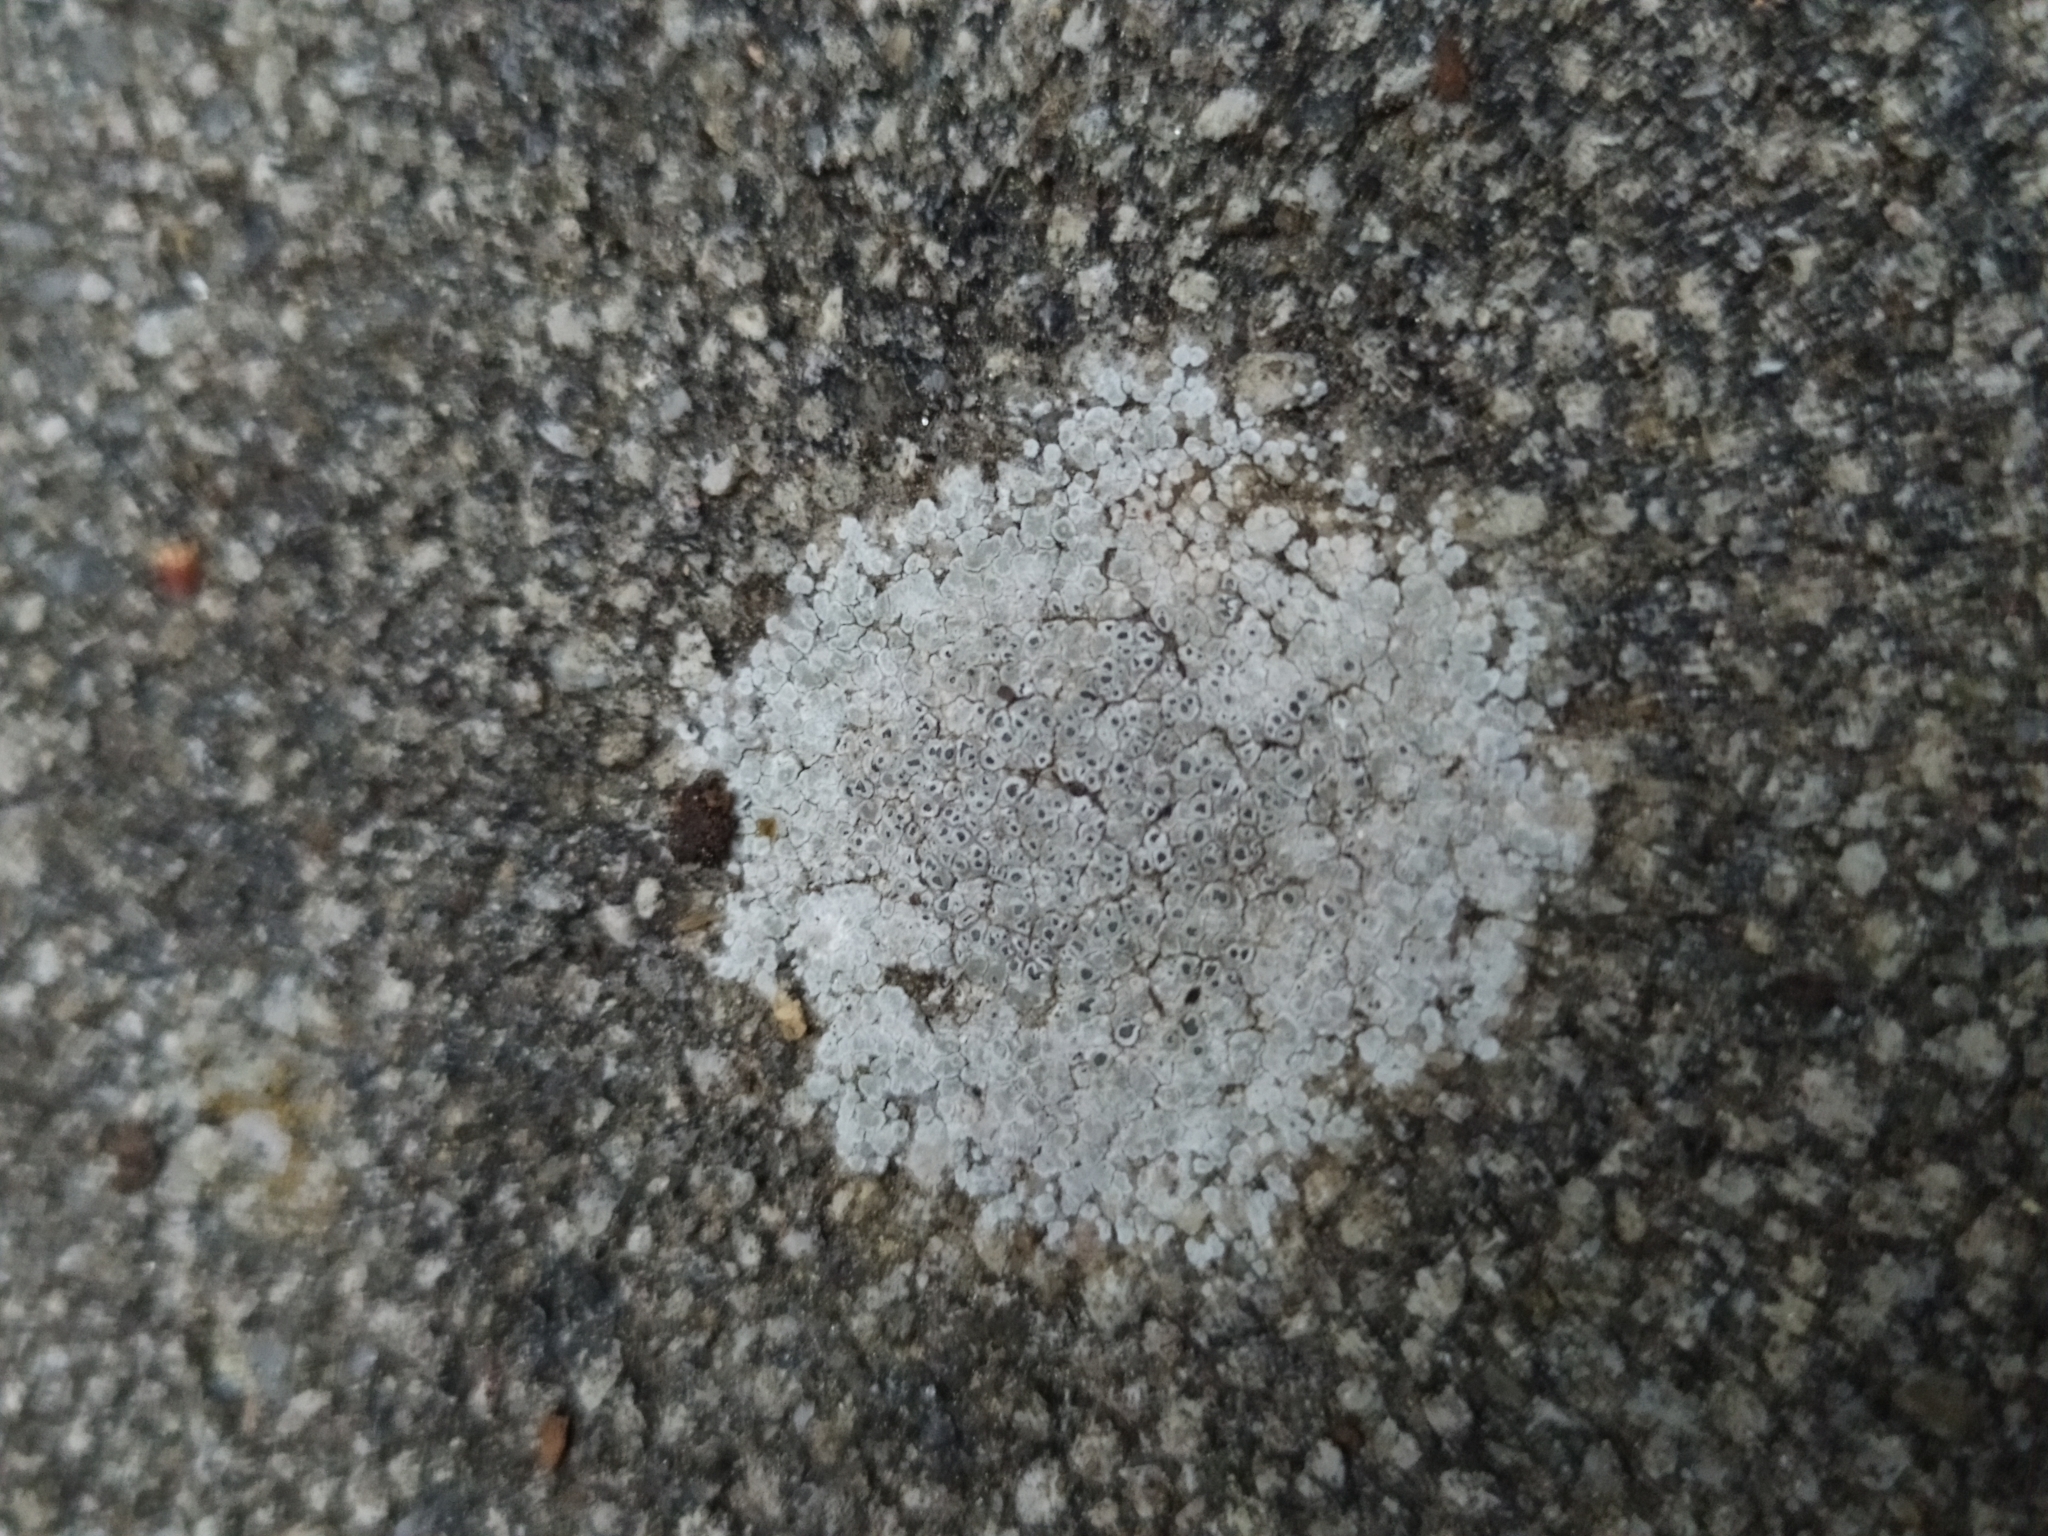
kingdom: Fungi
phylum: Ascomycota
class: Lecanoromycetes
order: Pertusariales
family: Megasporaceae
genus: Circinaria
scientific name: Circinaria contorta
